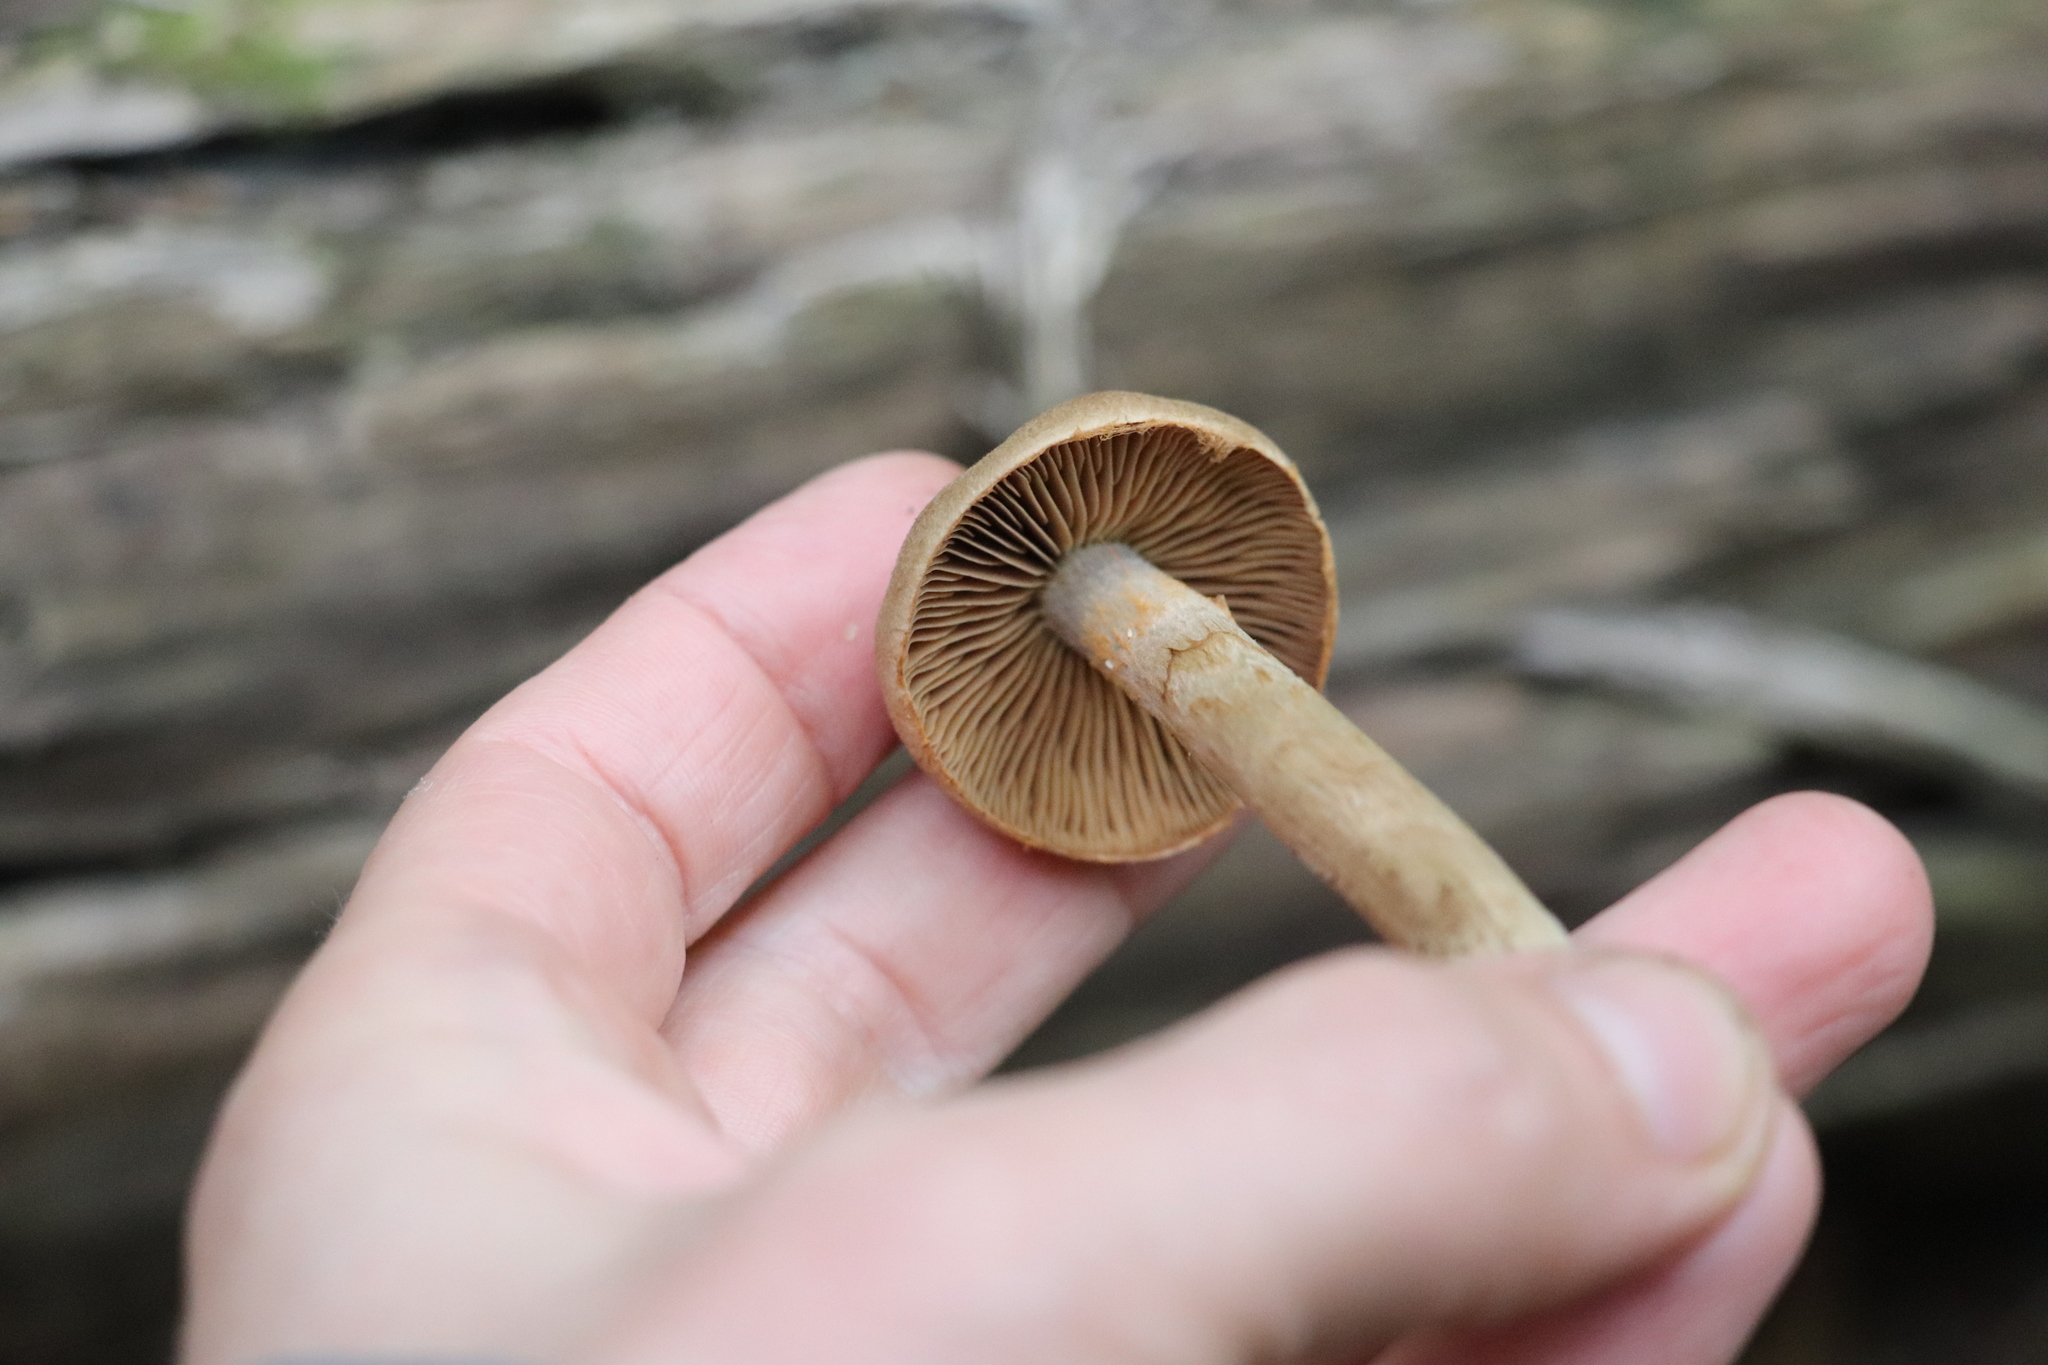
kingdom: Fungi
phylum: Basidiomycota
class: Agaricomycetes
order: Agaricales
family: Cortinariaceae
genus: Cortinarius
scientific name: Cortinarius camphoratus
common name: Goatcheese webcap
